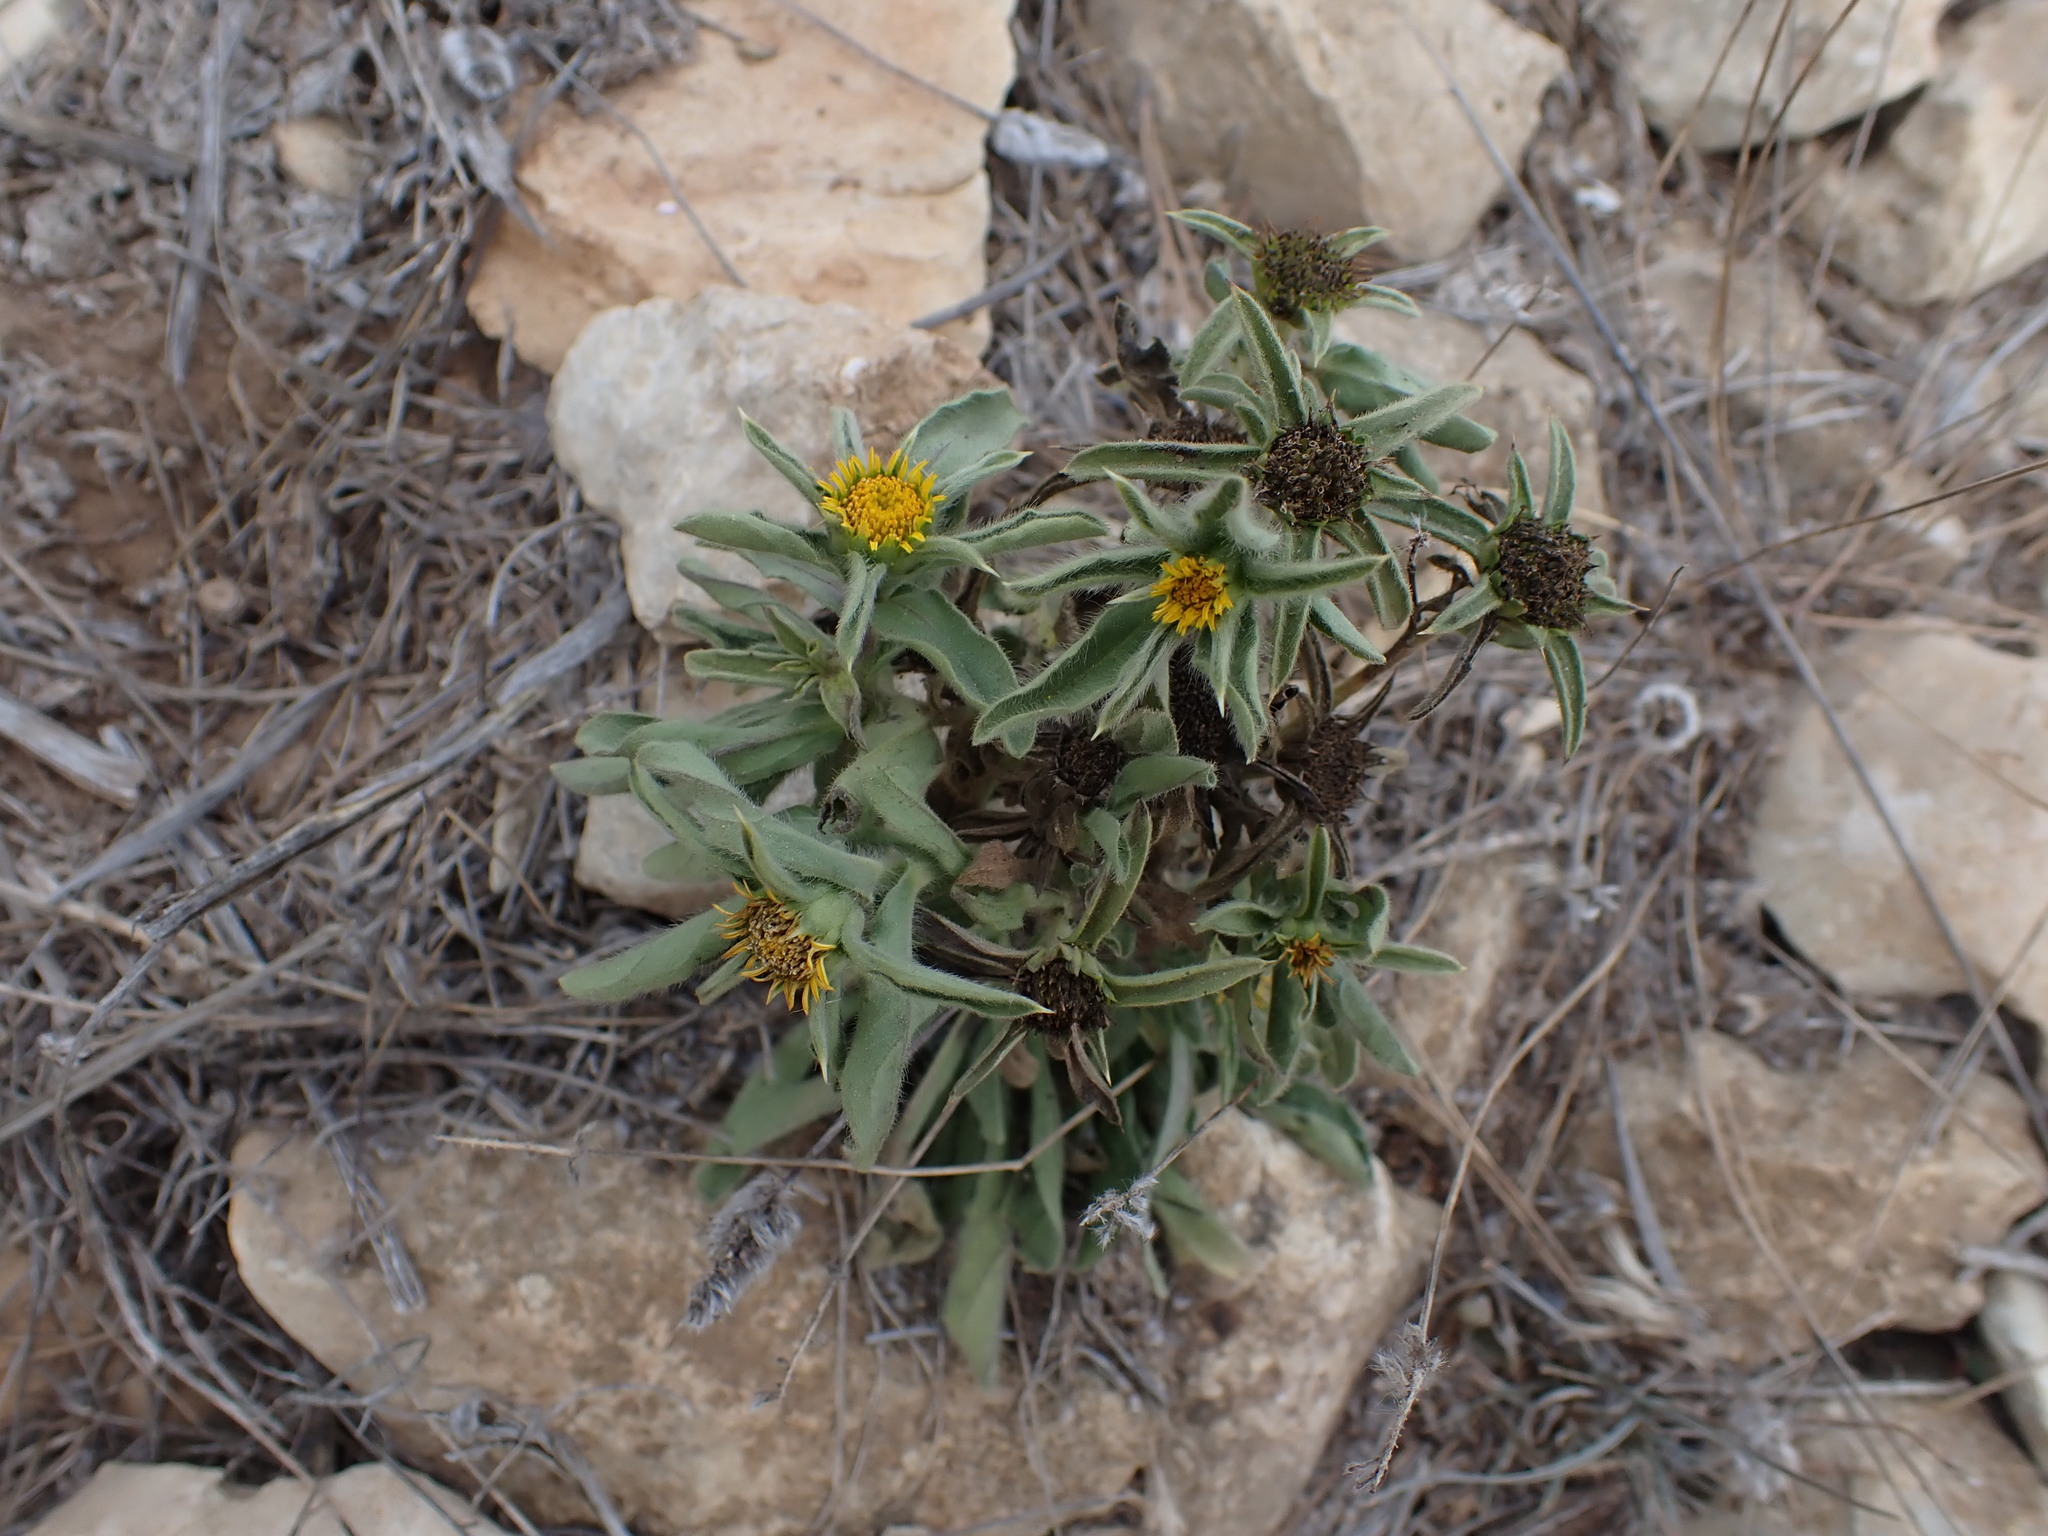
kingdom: Plantae
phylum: Tracheophyta
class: Magnoliopsida
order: Asterales
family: Asteraceae
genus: Pallenis
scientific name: Pallenis spinosa
